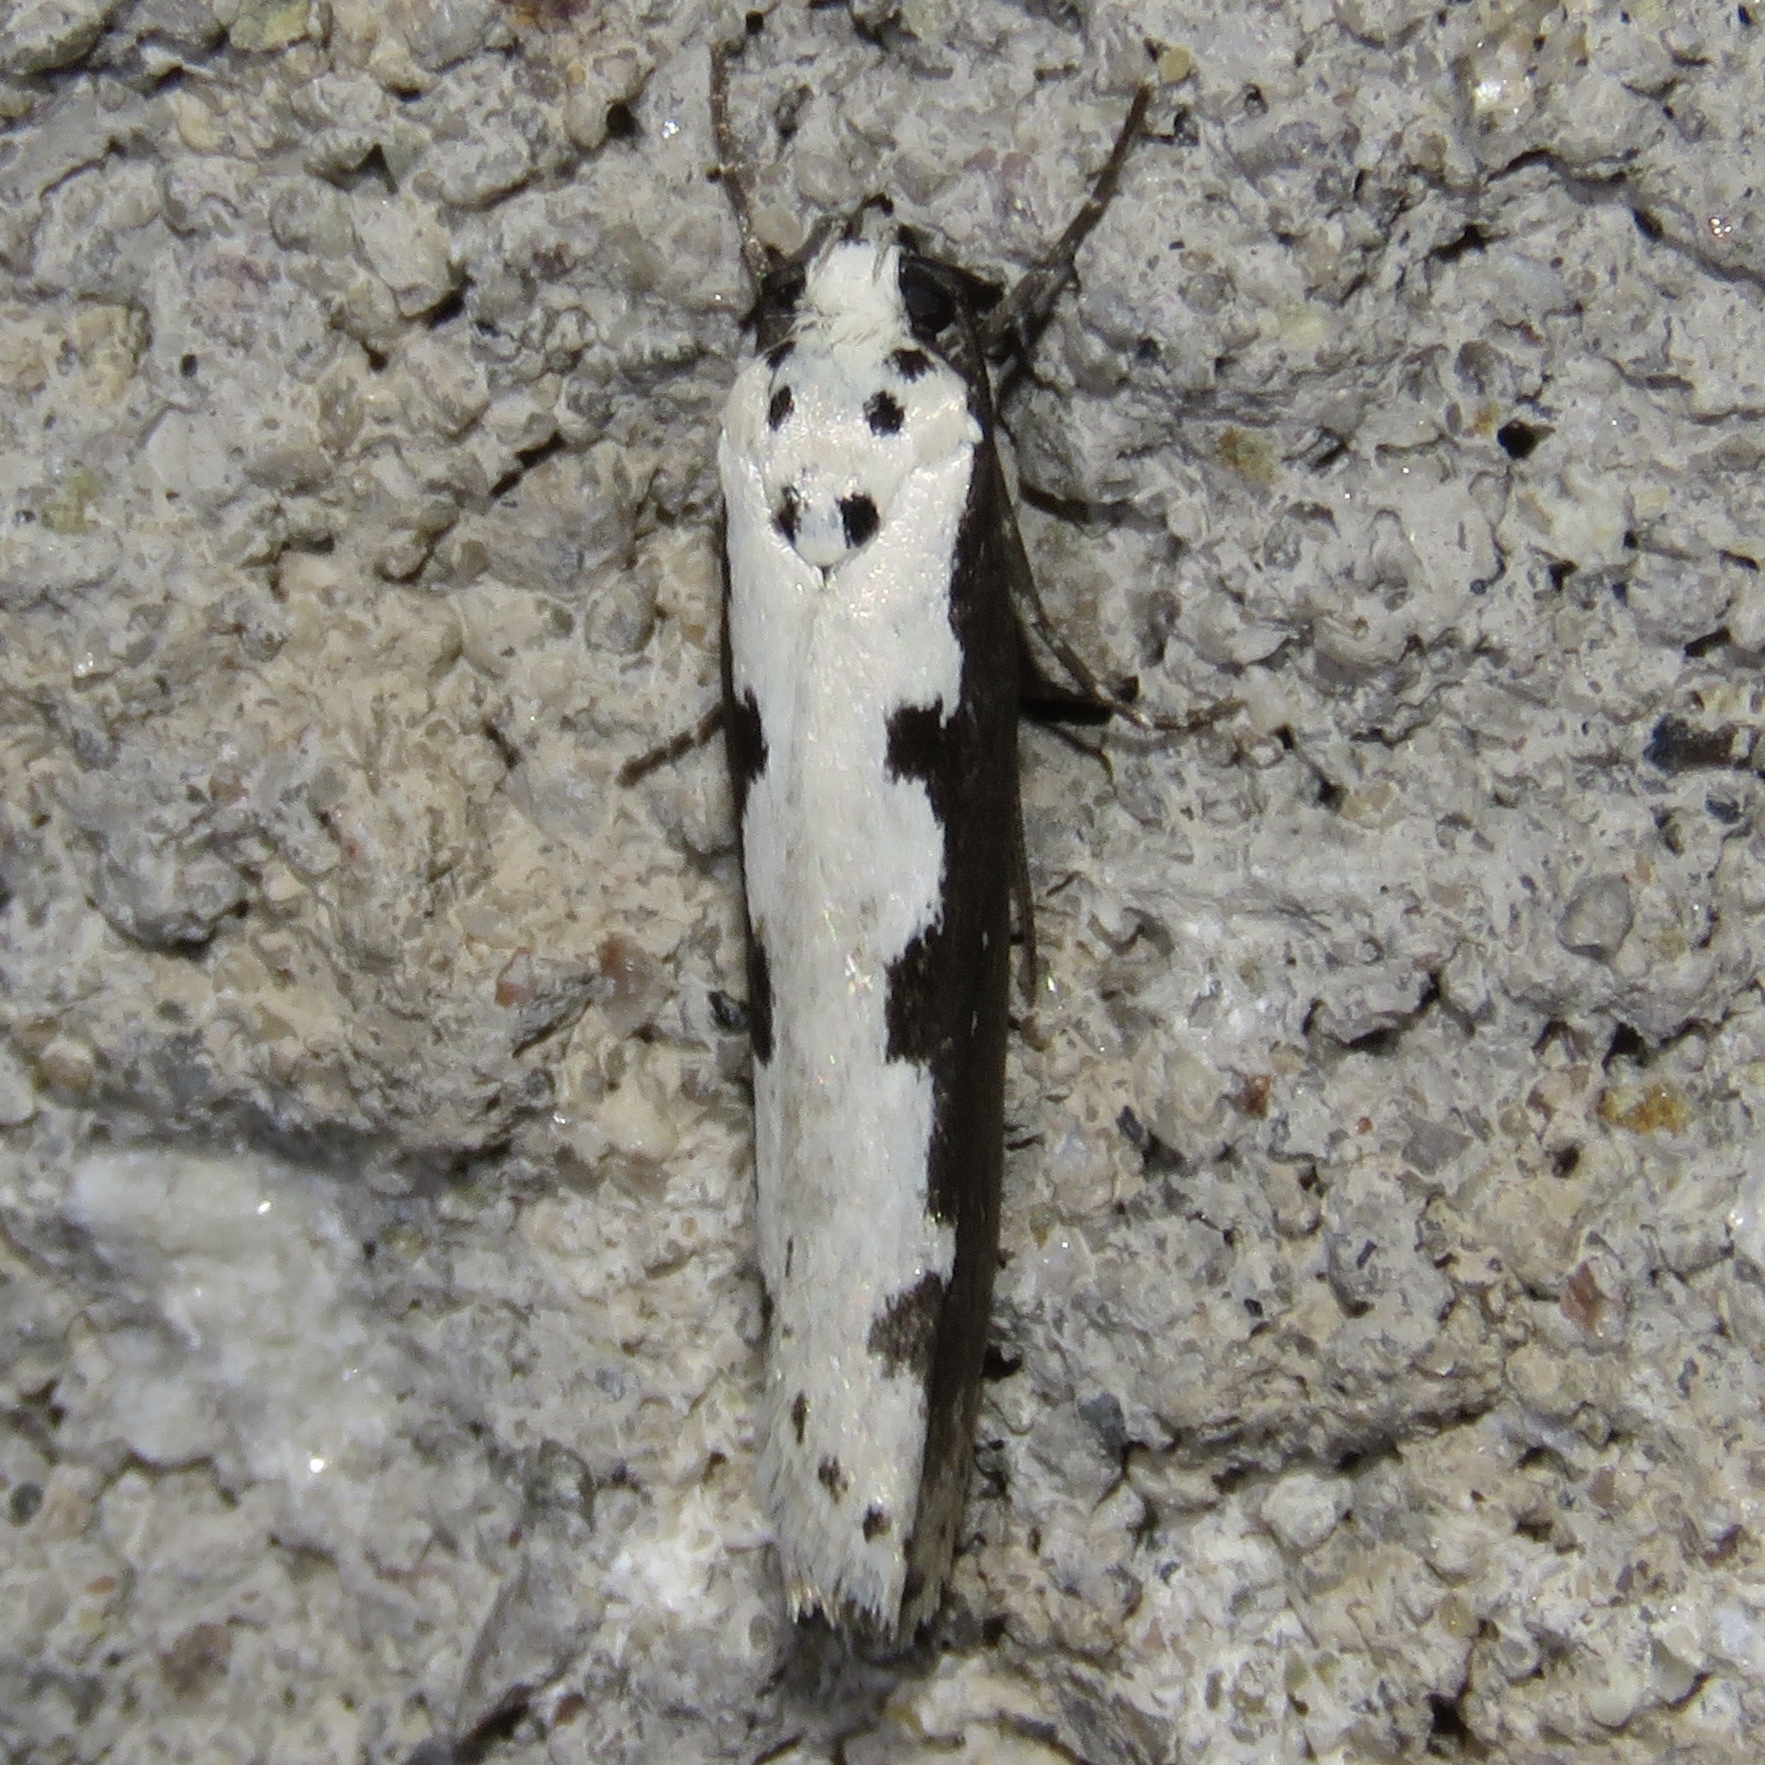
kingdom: Animalia
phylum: Arthropoda
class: Insecta
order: Lepidoptera
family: Ethmiidae
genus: Ethmia
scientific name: Ethmia bipunctella
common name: Bordered ermel
